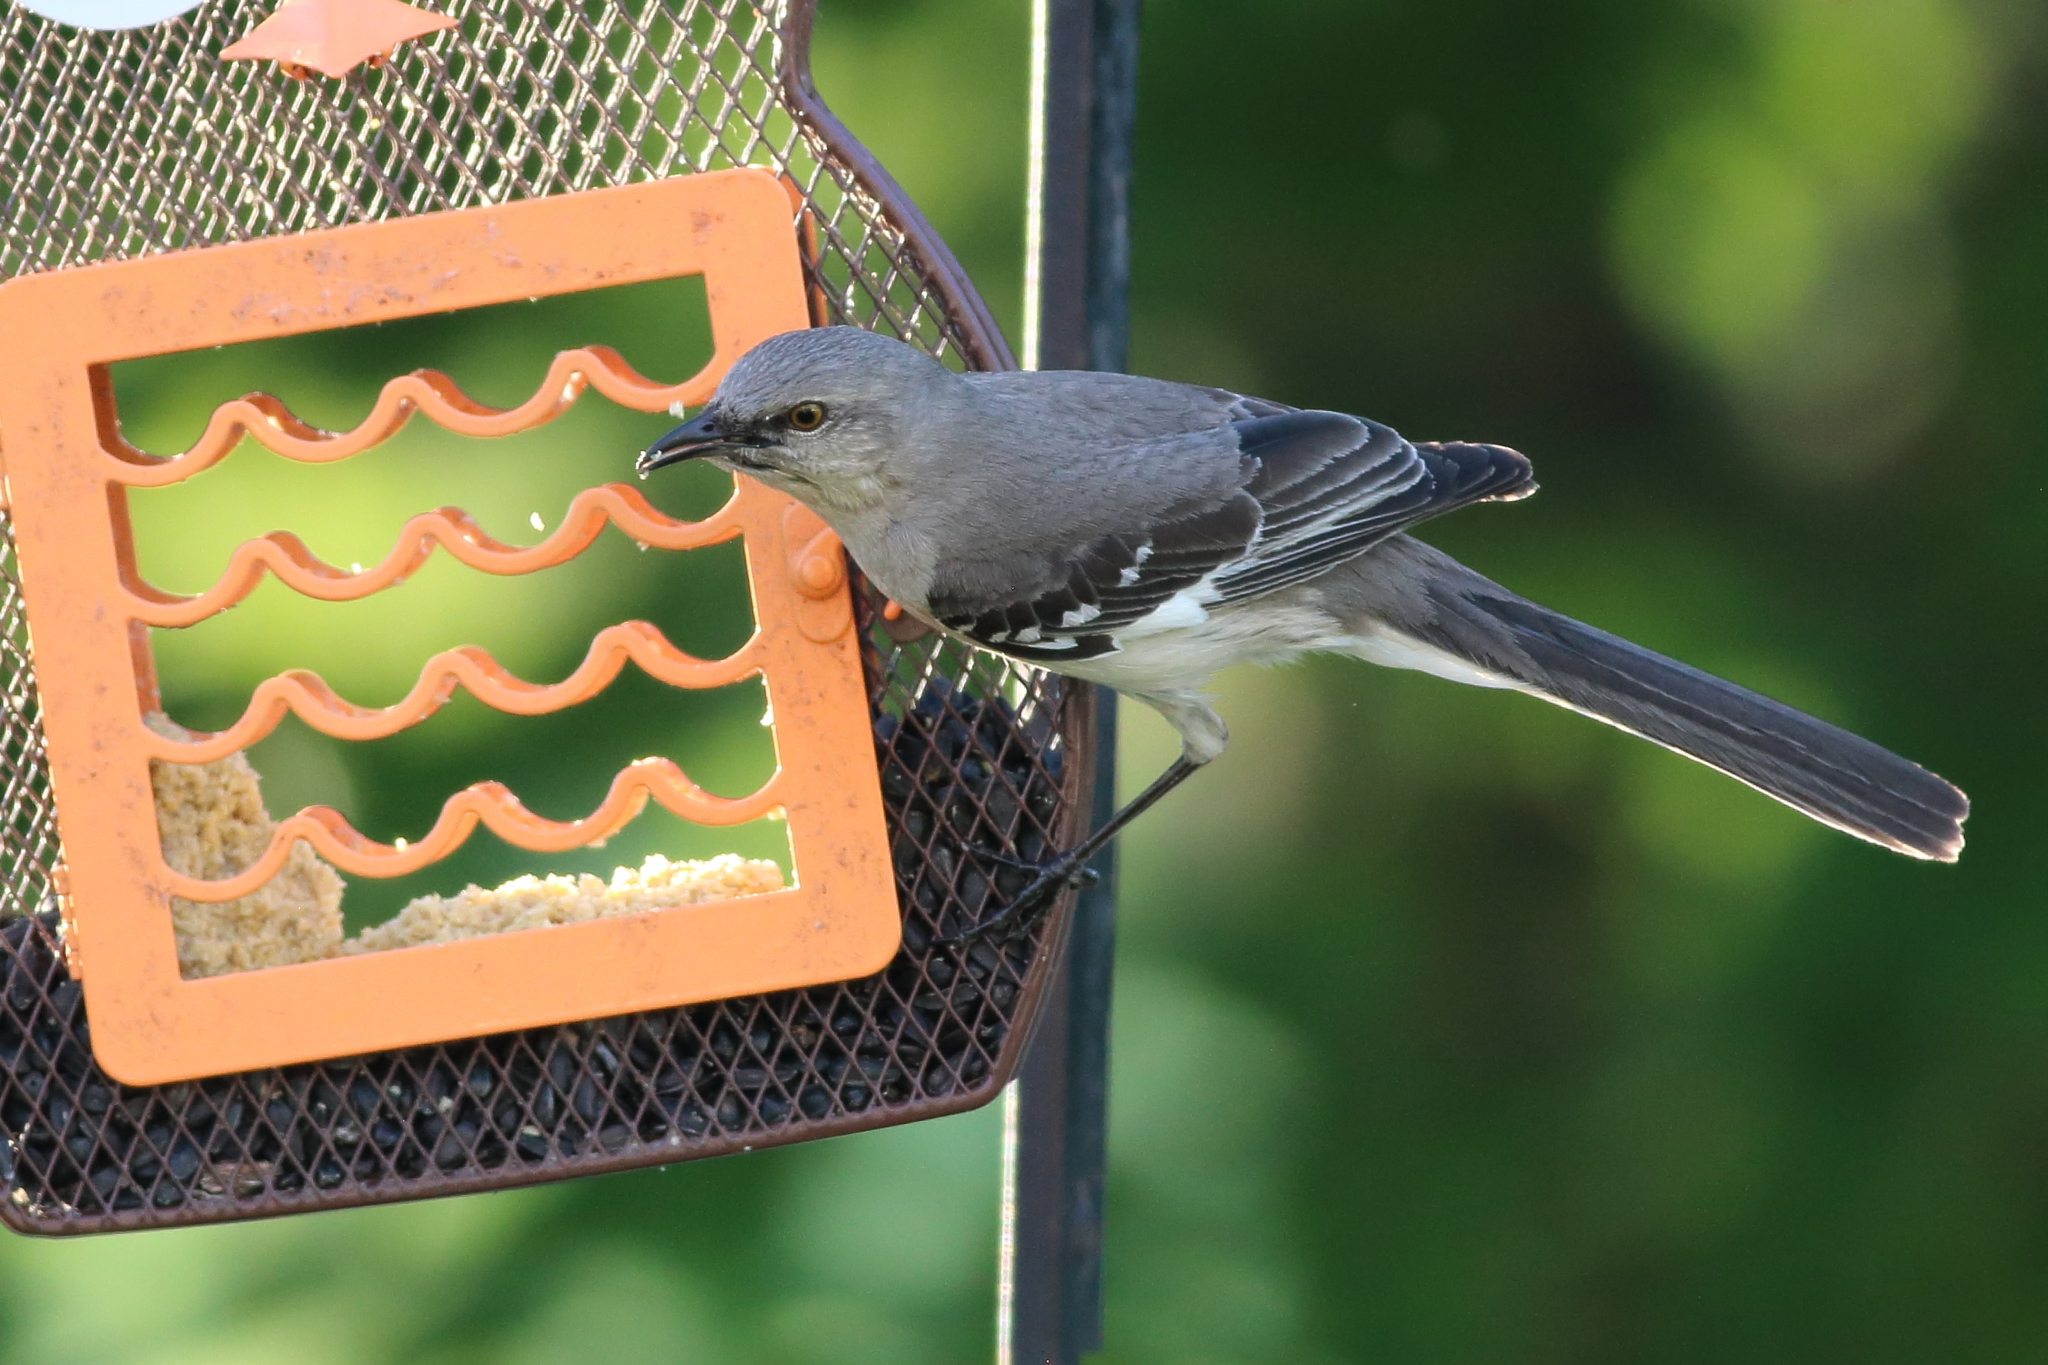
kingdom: Animalia
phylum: Chordata
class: Aves
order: Passeriformes
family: Mimidae
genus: Mimus
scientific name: Mimus polyglottos
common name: Northern mockingbird
